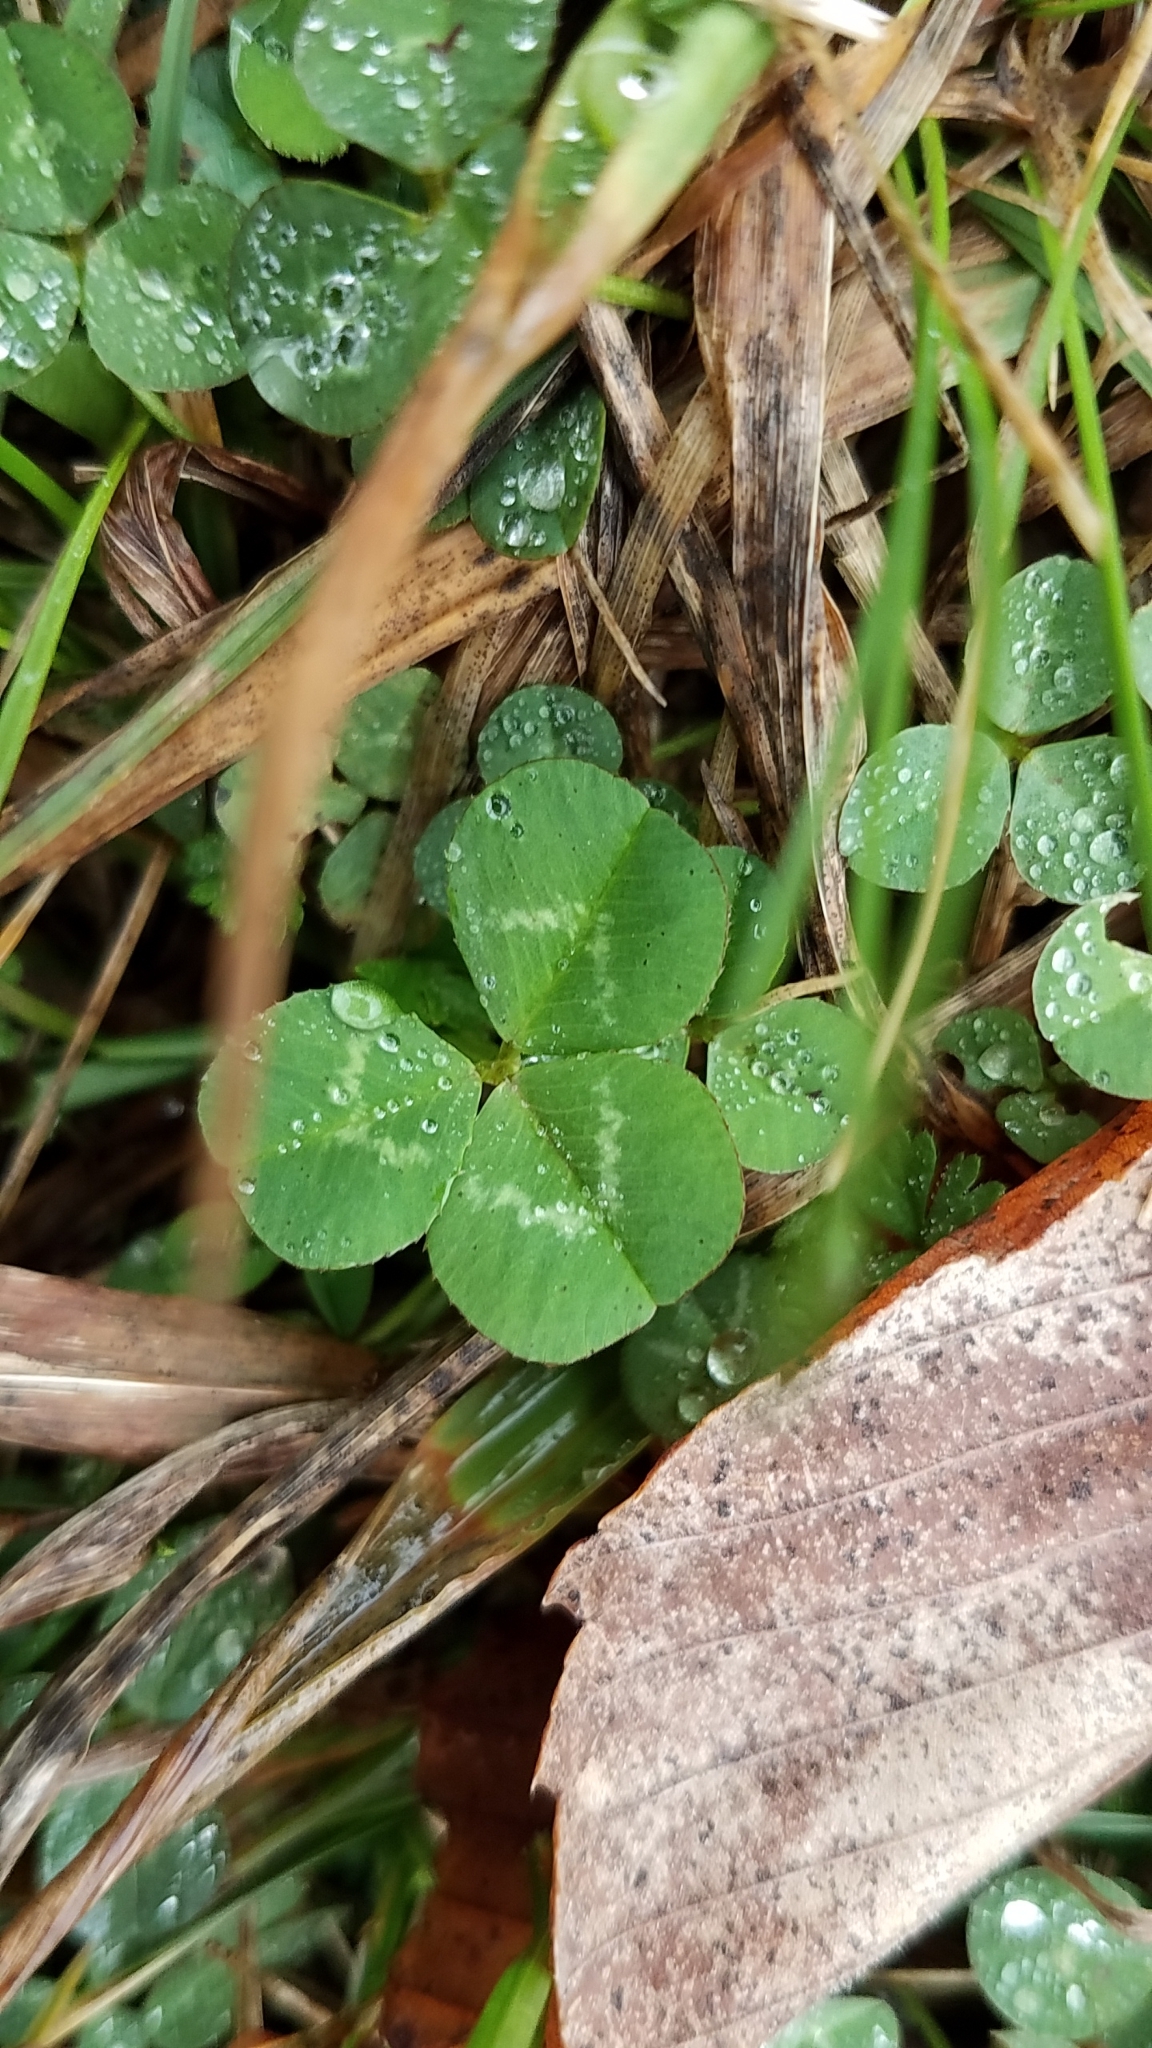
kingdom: Plantae
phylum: Tracheophyta
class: Magnoliopsida
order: Fabales
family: Fabaceae
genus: Trifolium
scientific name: Trifolium repens
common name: White clover
